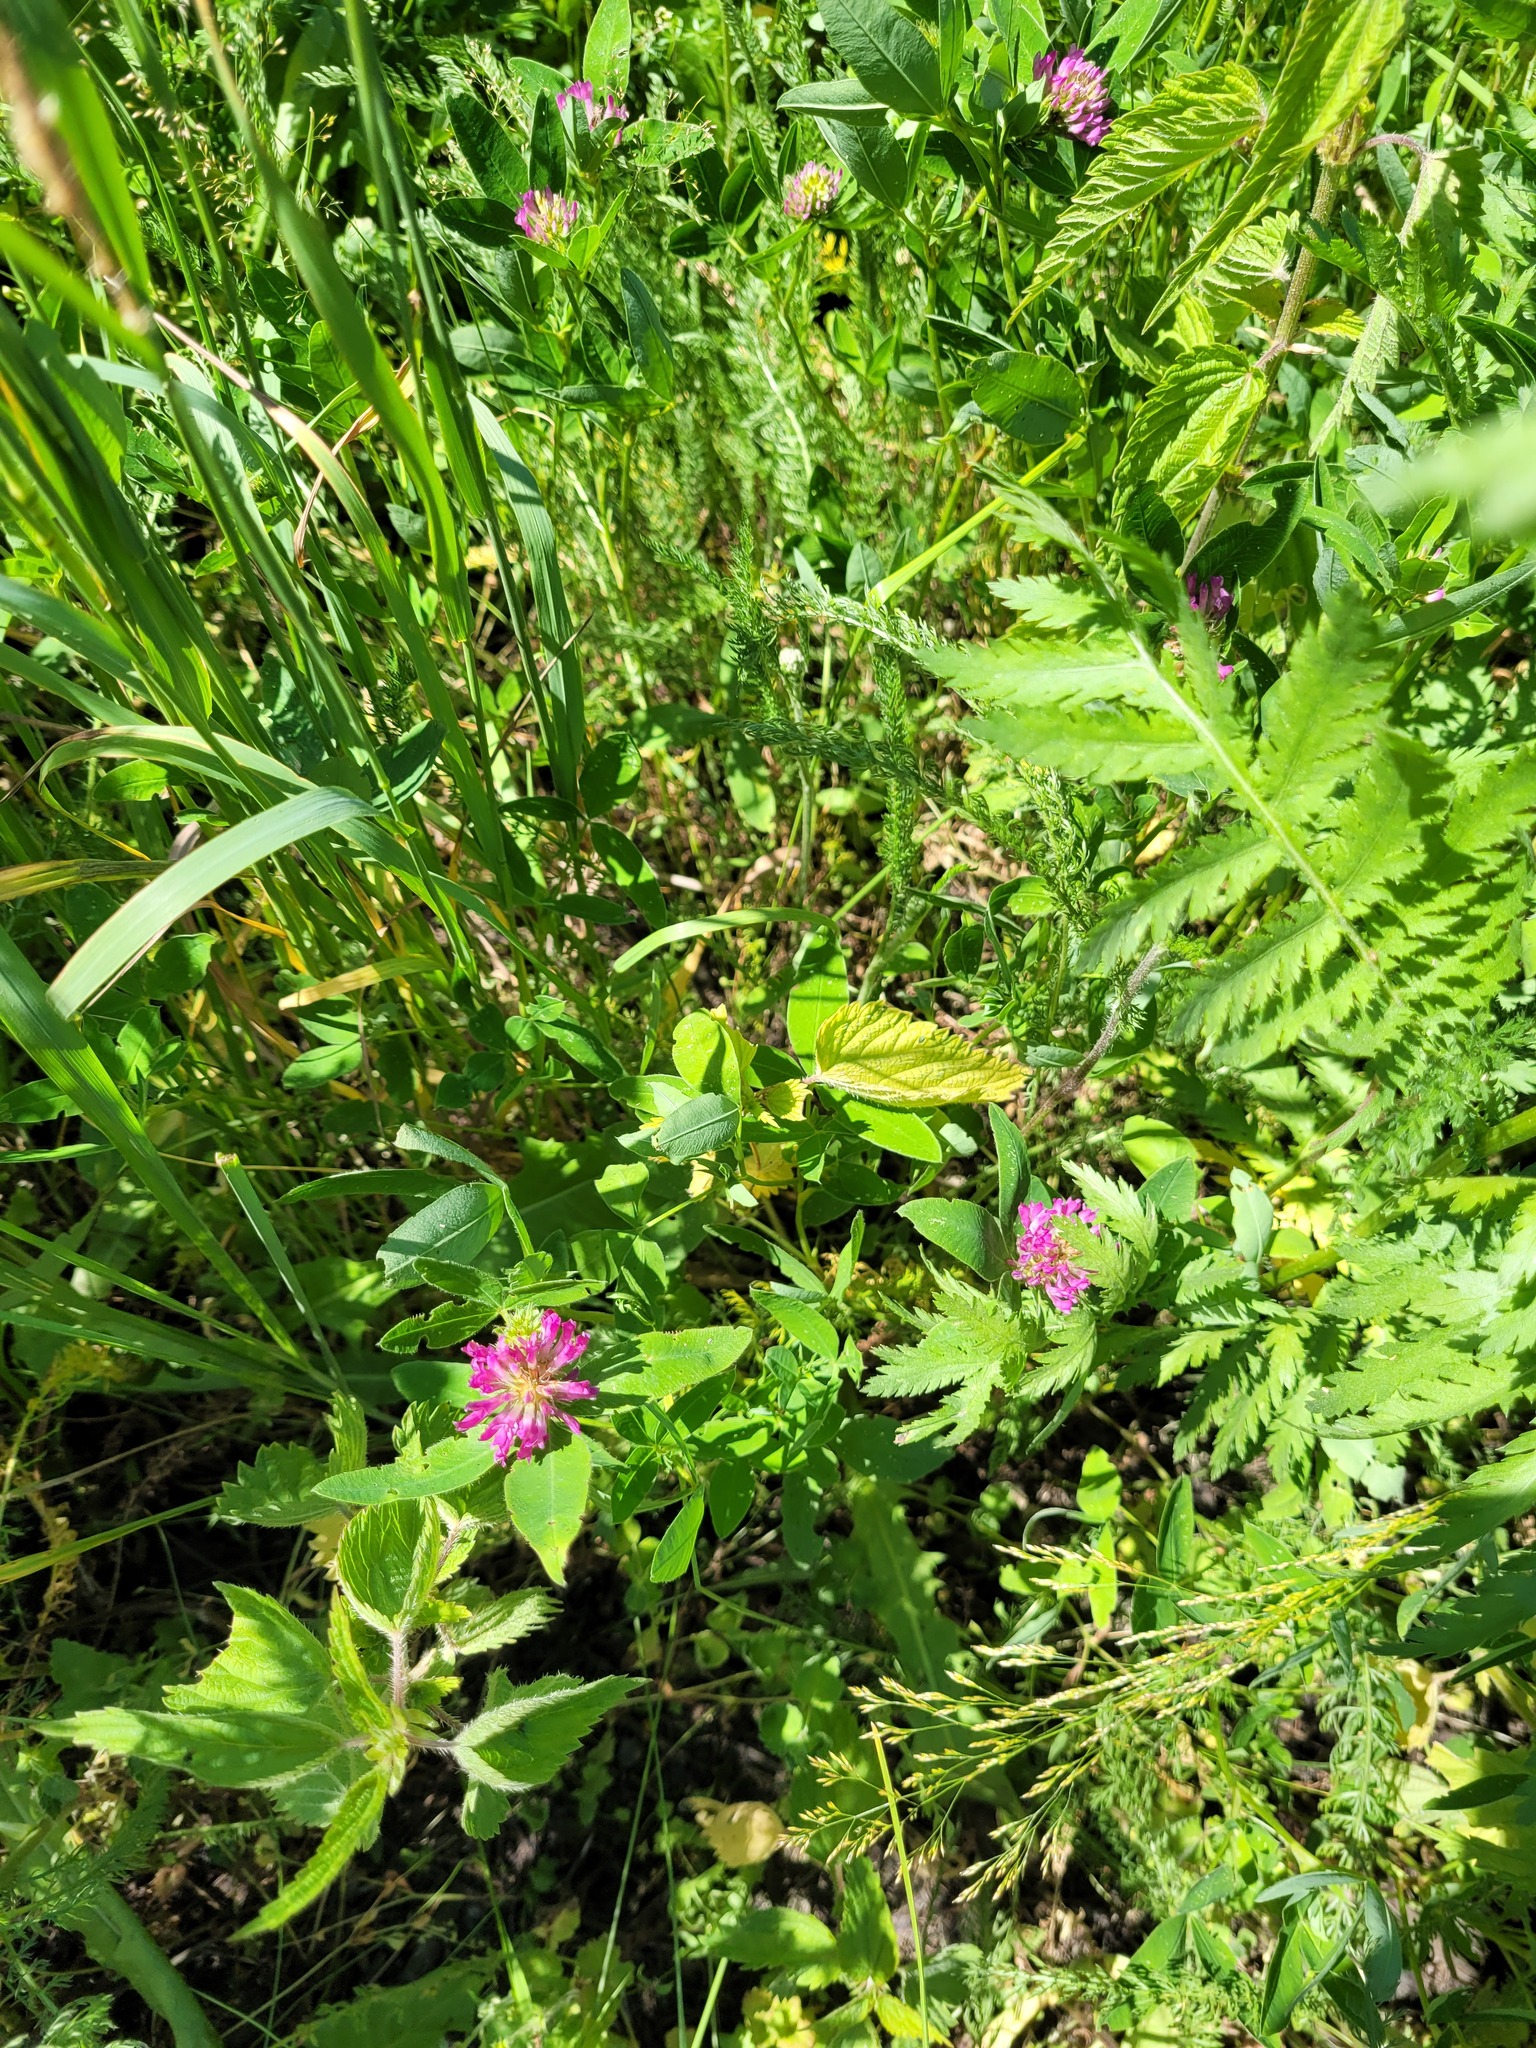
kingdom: Plantae
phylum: Tracheophyta
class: Magnoliopsida
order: Fabales
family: Fabaceae
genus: Trifolium
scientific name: Trifolium medium
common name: Zigzag clover
